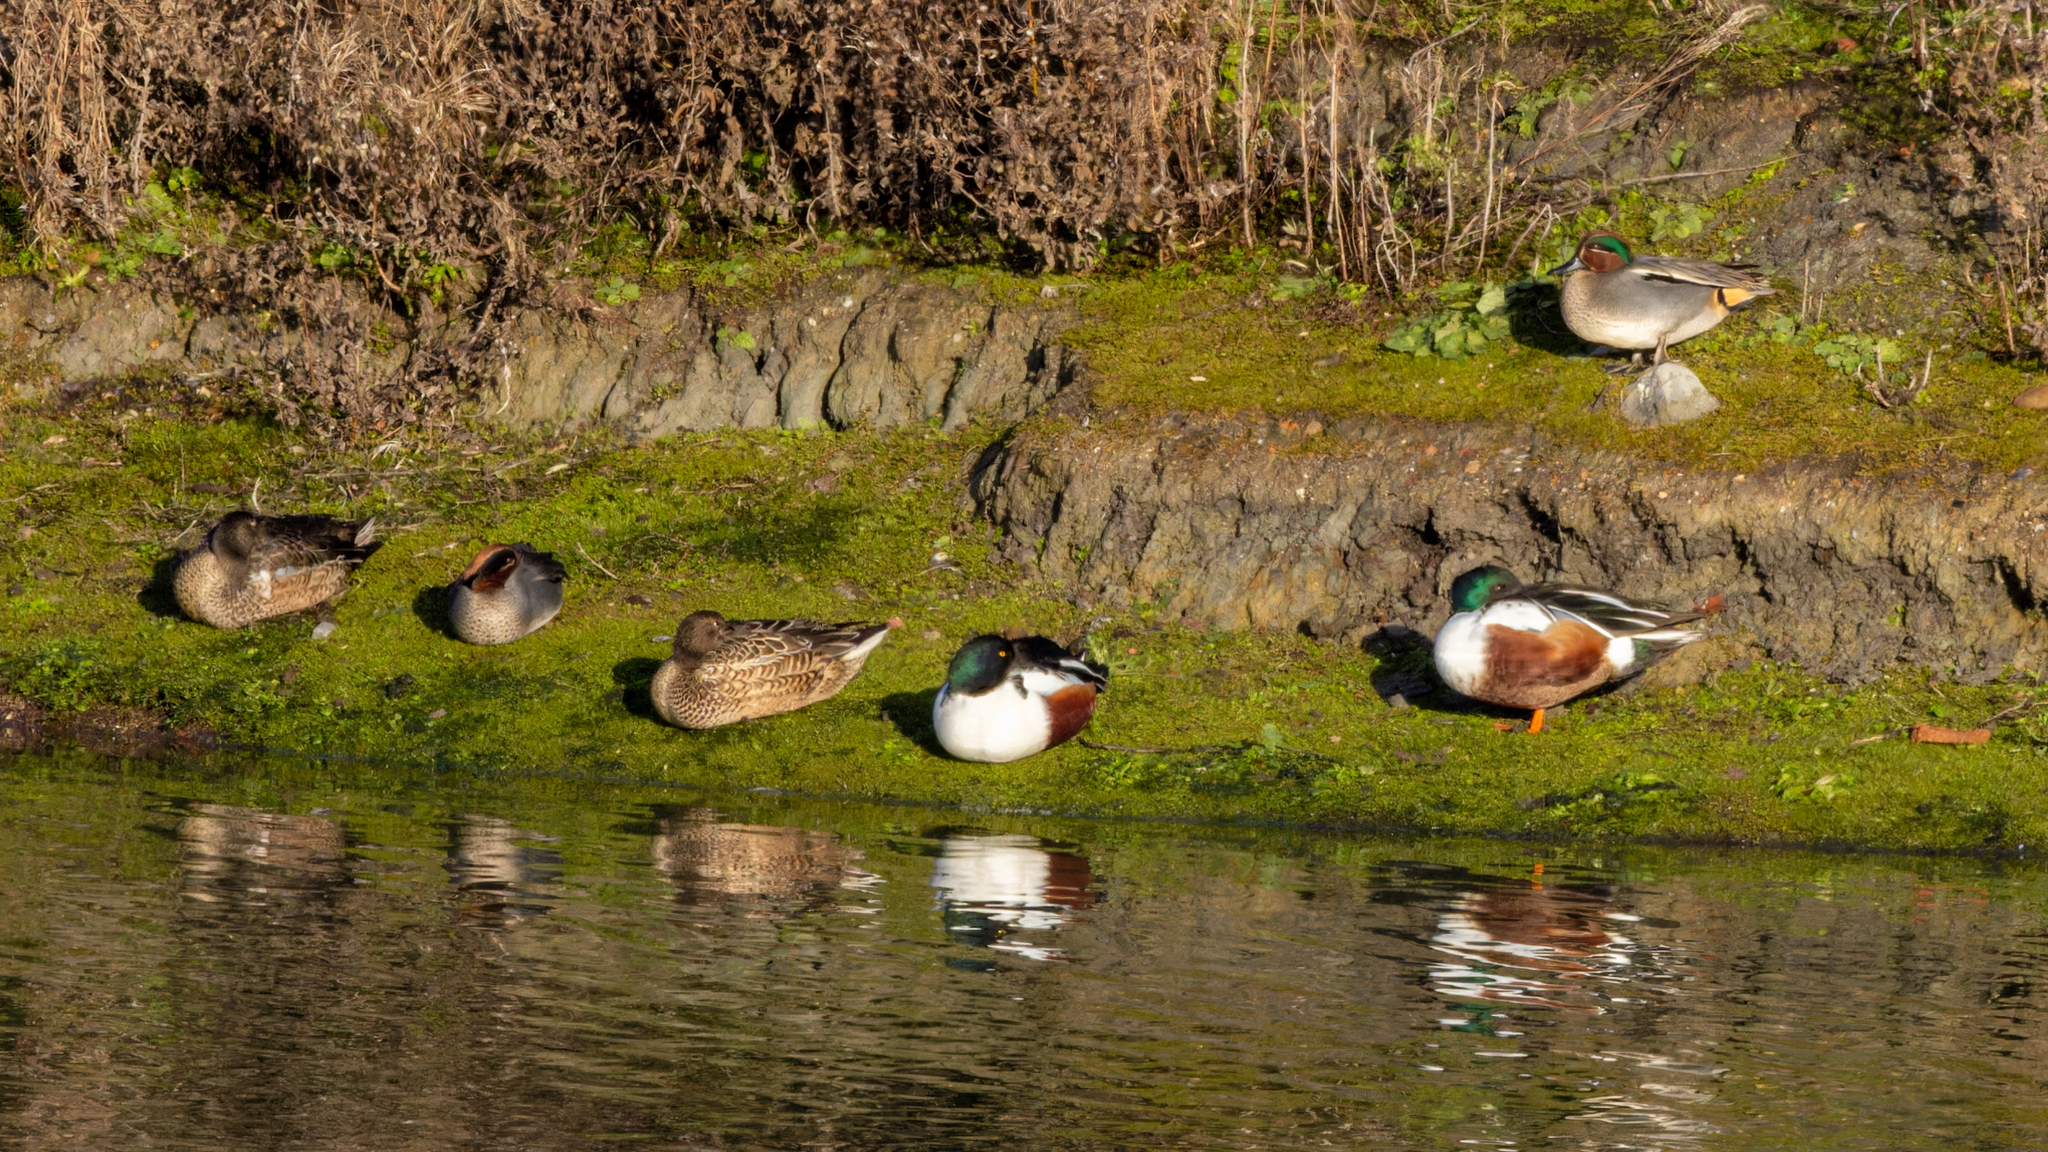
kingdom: Animalia
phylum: Chordata
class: Aves
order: Anseriformes
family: Anatidae
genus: Spatula
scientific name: Spatula clypeata
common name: Northern shoveler
